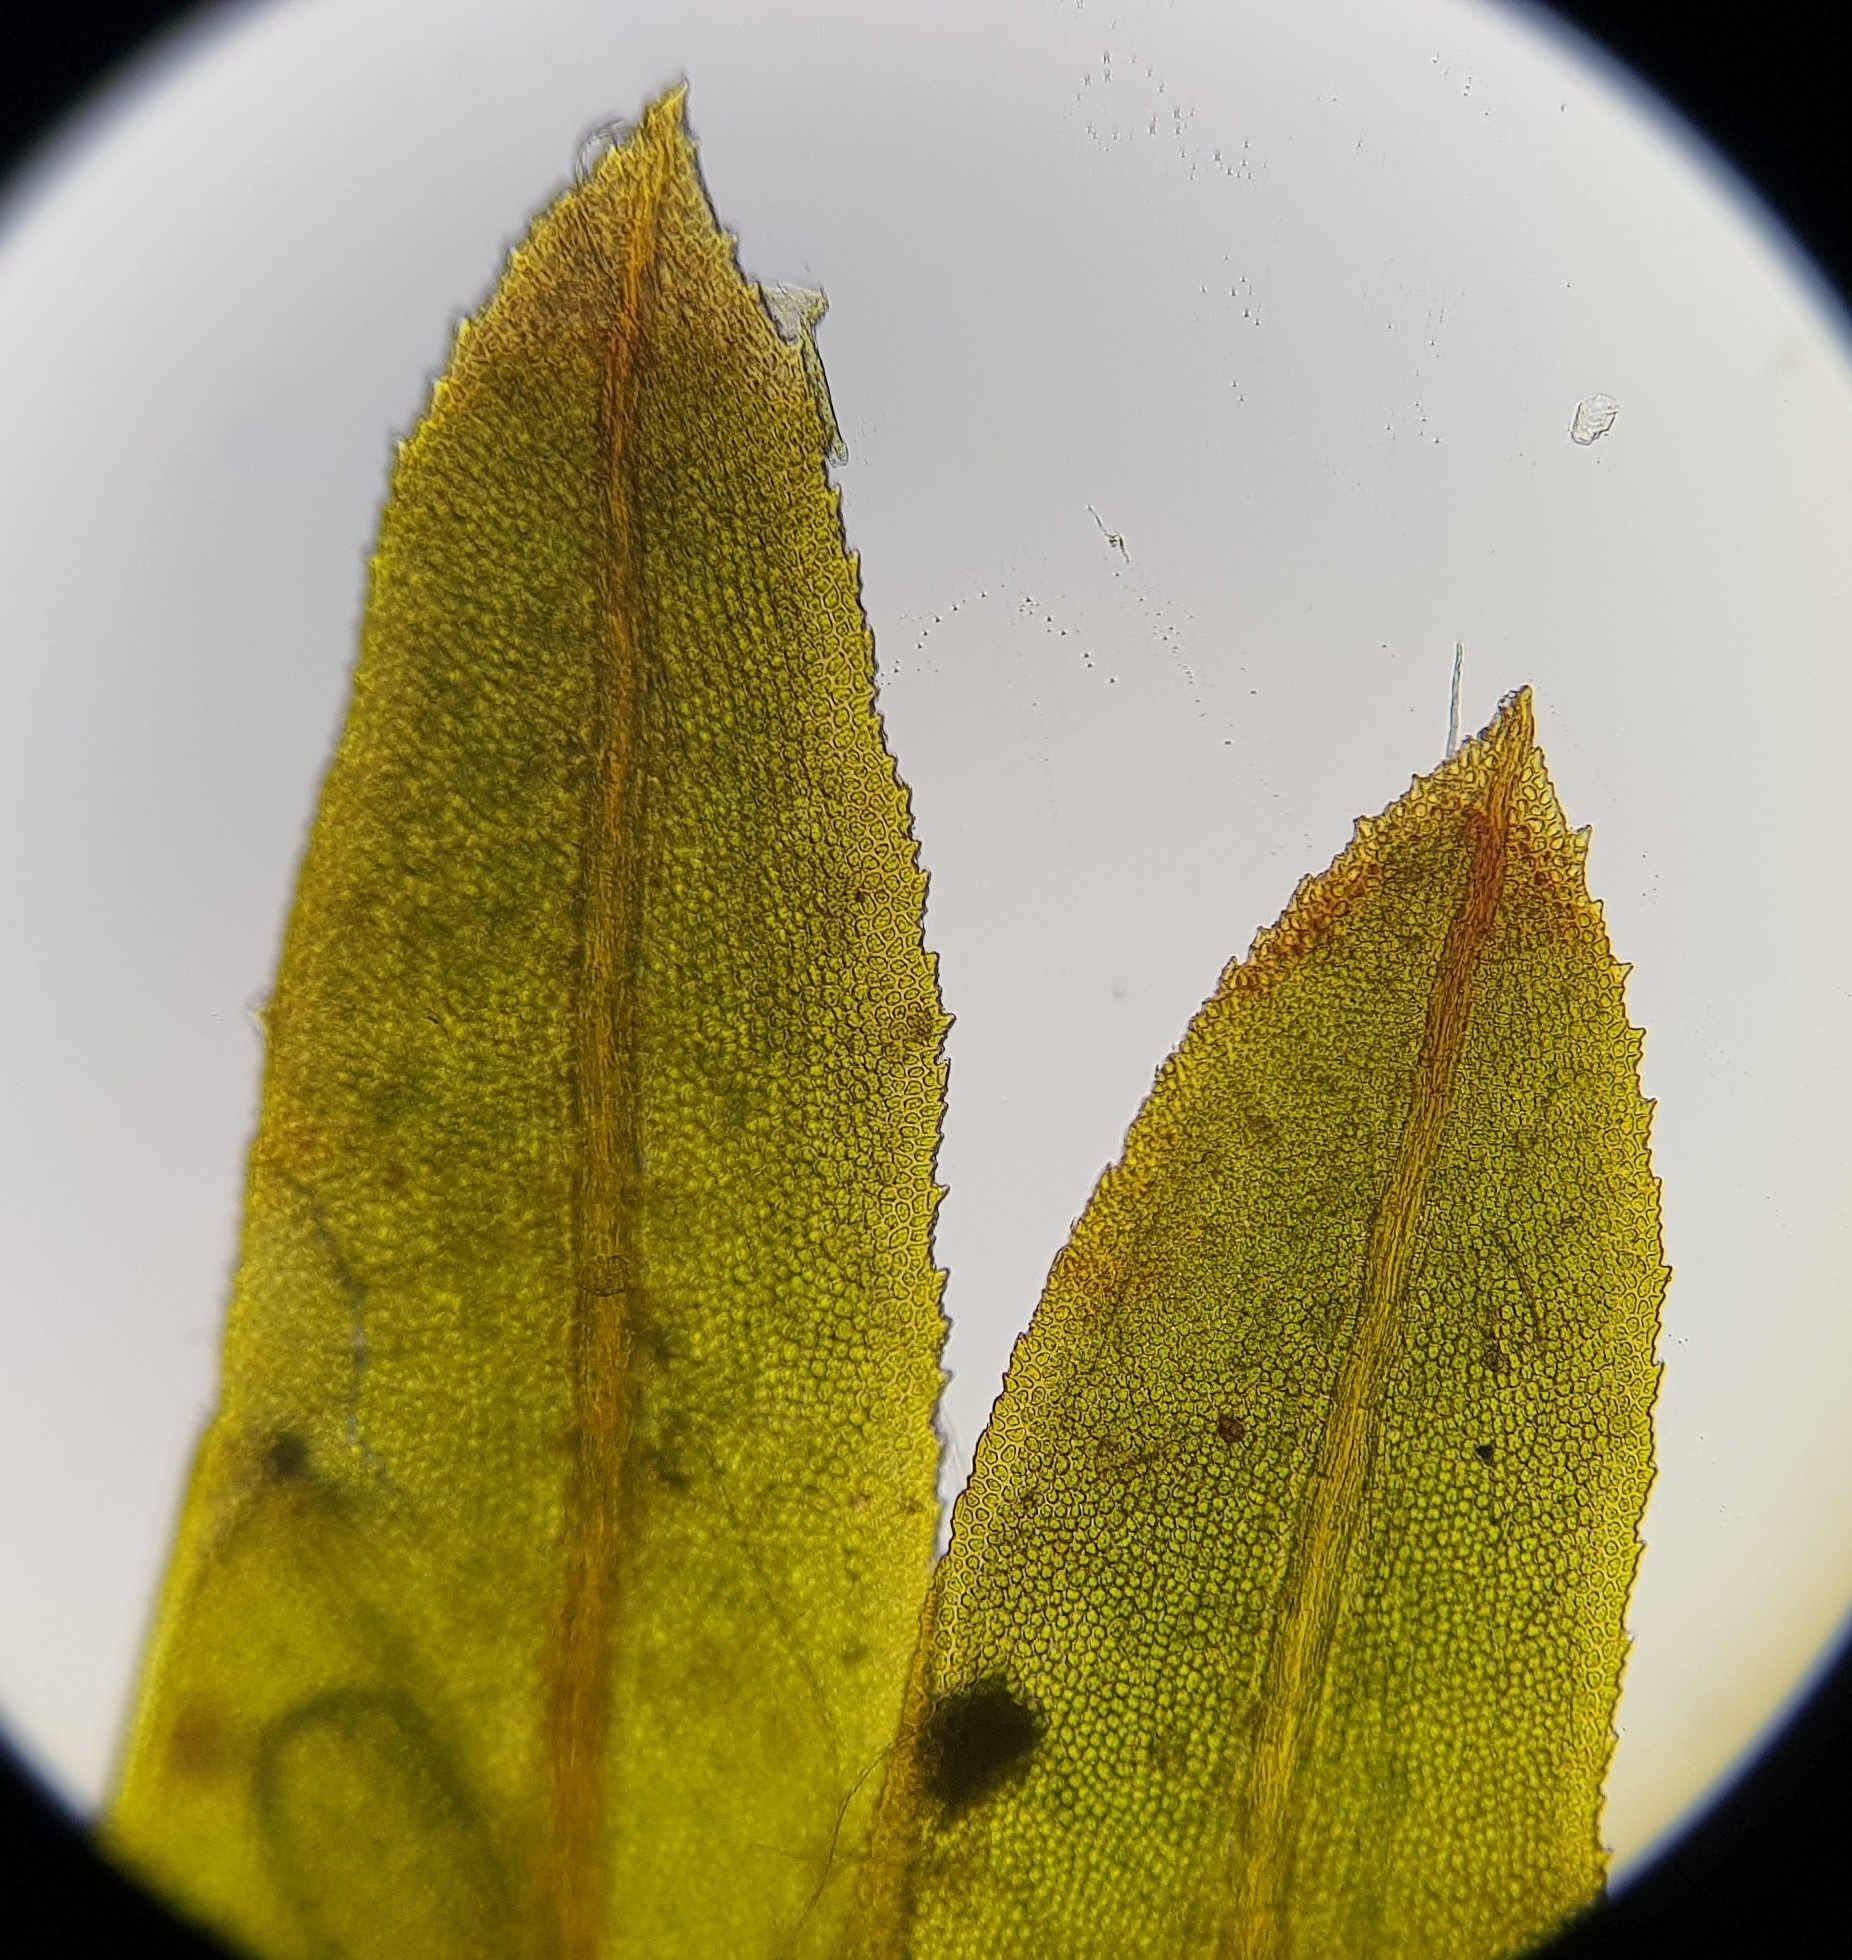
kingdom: Plantae
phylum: Bryophyta
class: Bryopsida
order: Dicranales
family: Fissidentaceae
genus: Fissidens
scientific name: Fissidens dubius
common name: Rock pocket moss
